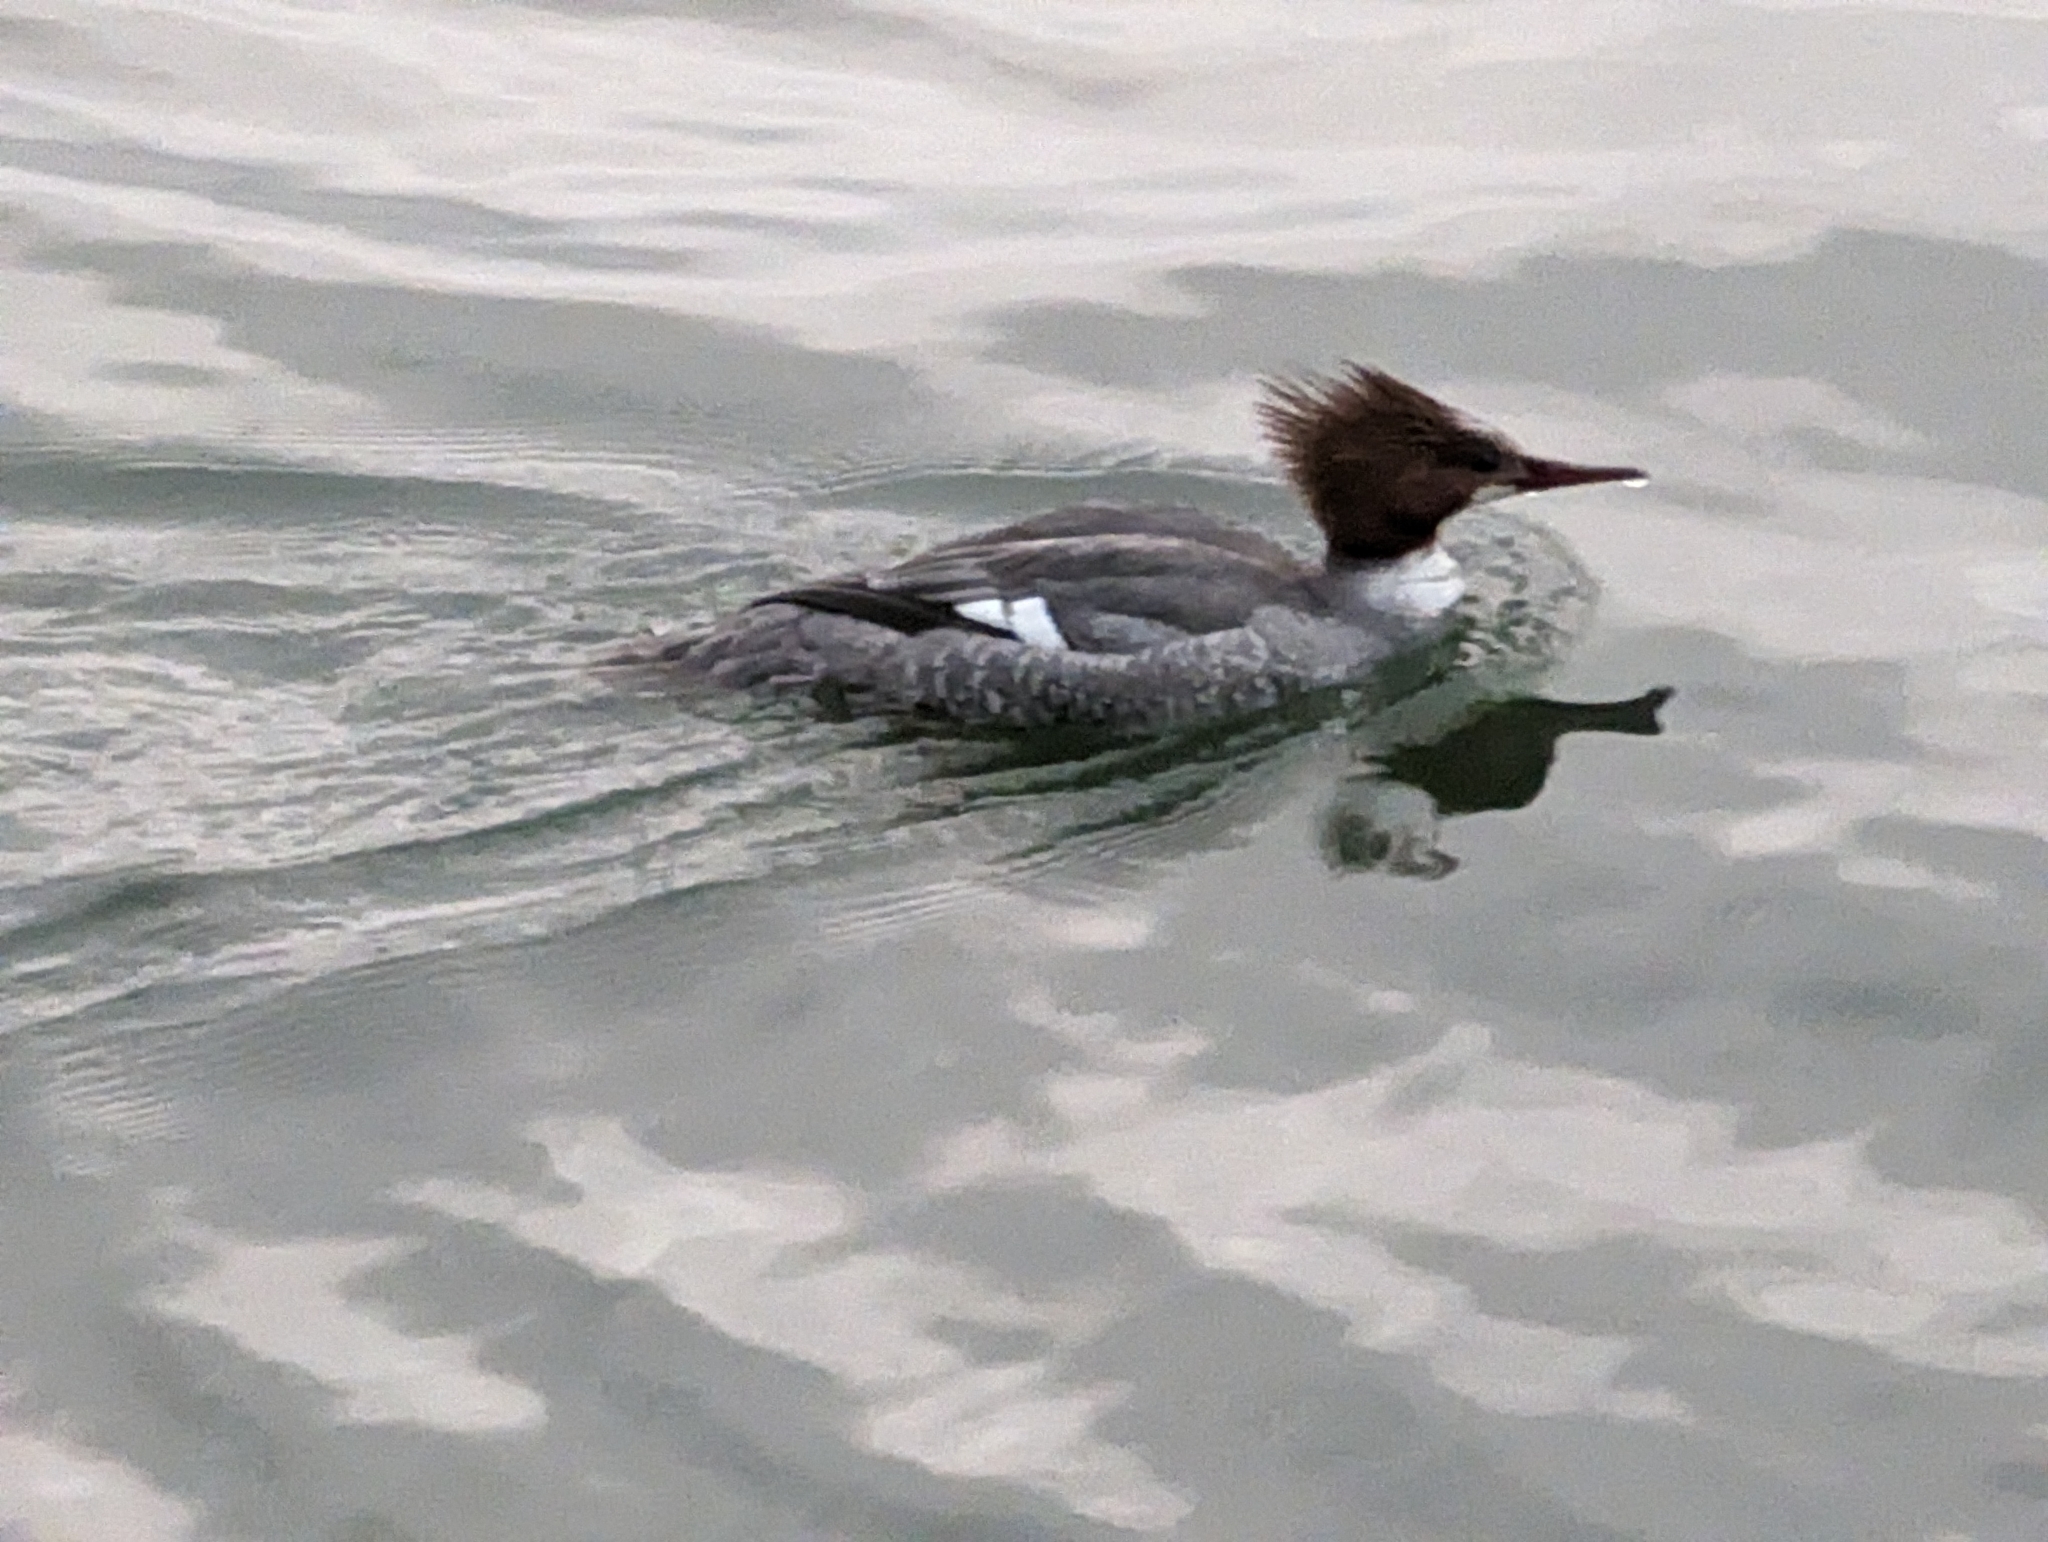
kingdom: Animalia
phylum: Chordata
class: Aves
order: Anseriformes
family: Anatidae
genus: Mergus
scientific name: Mergus merganser
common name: Common merganser
